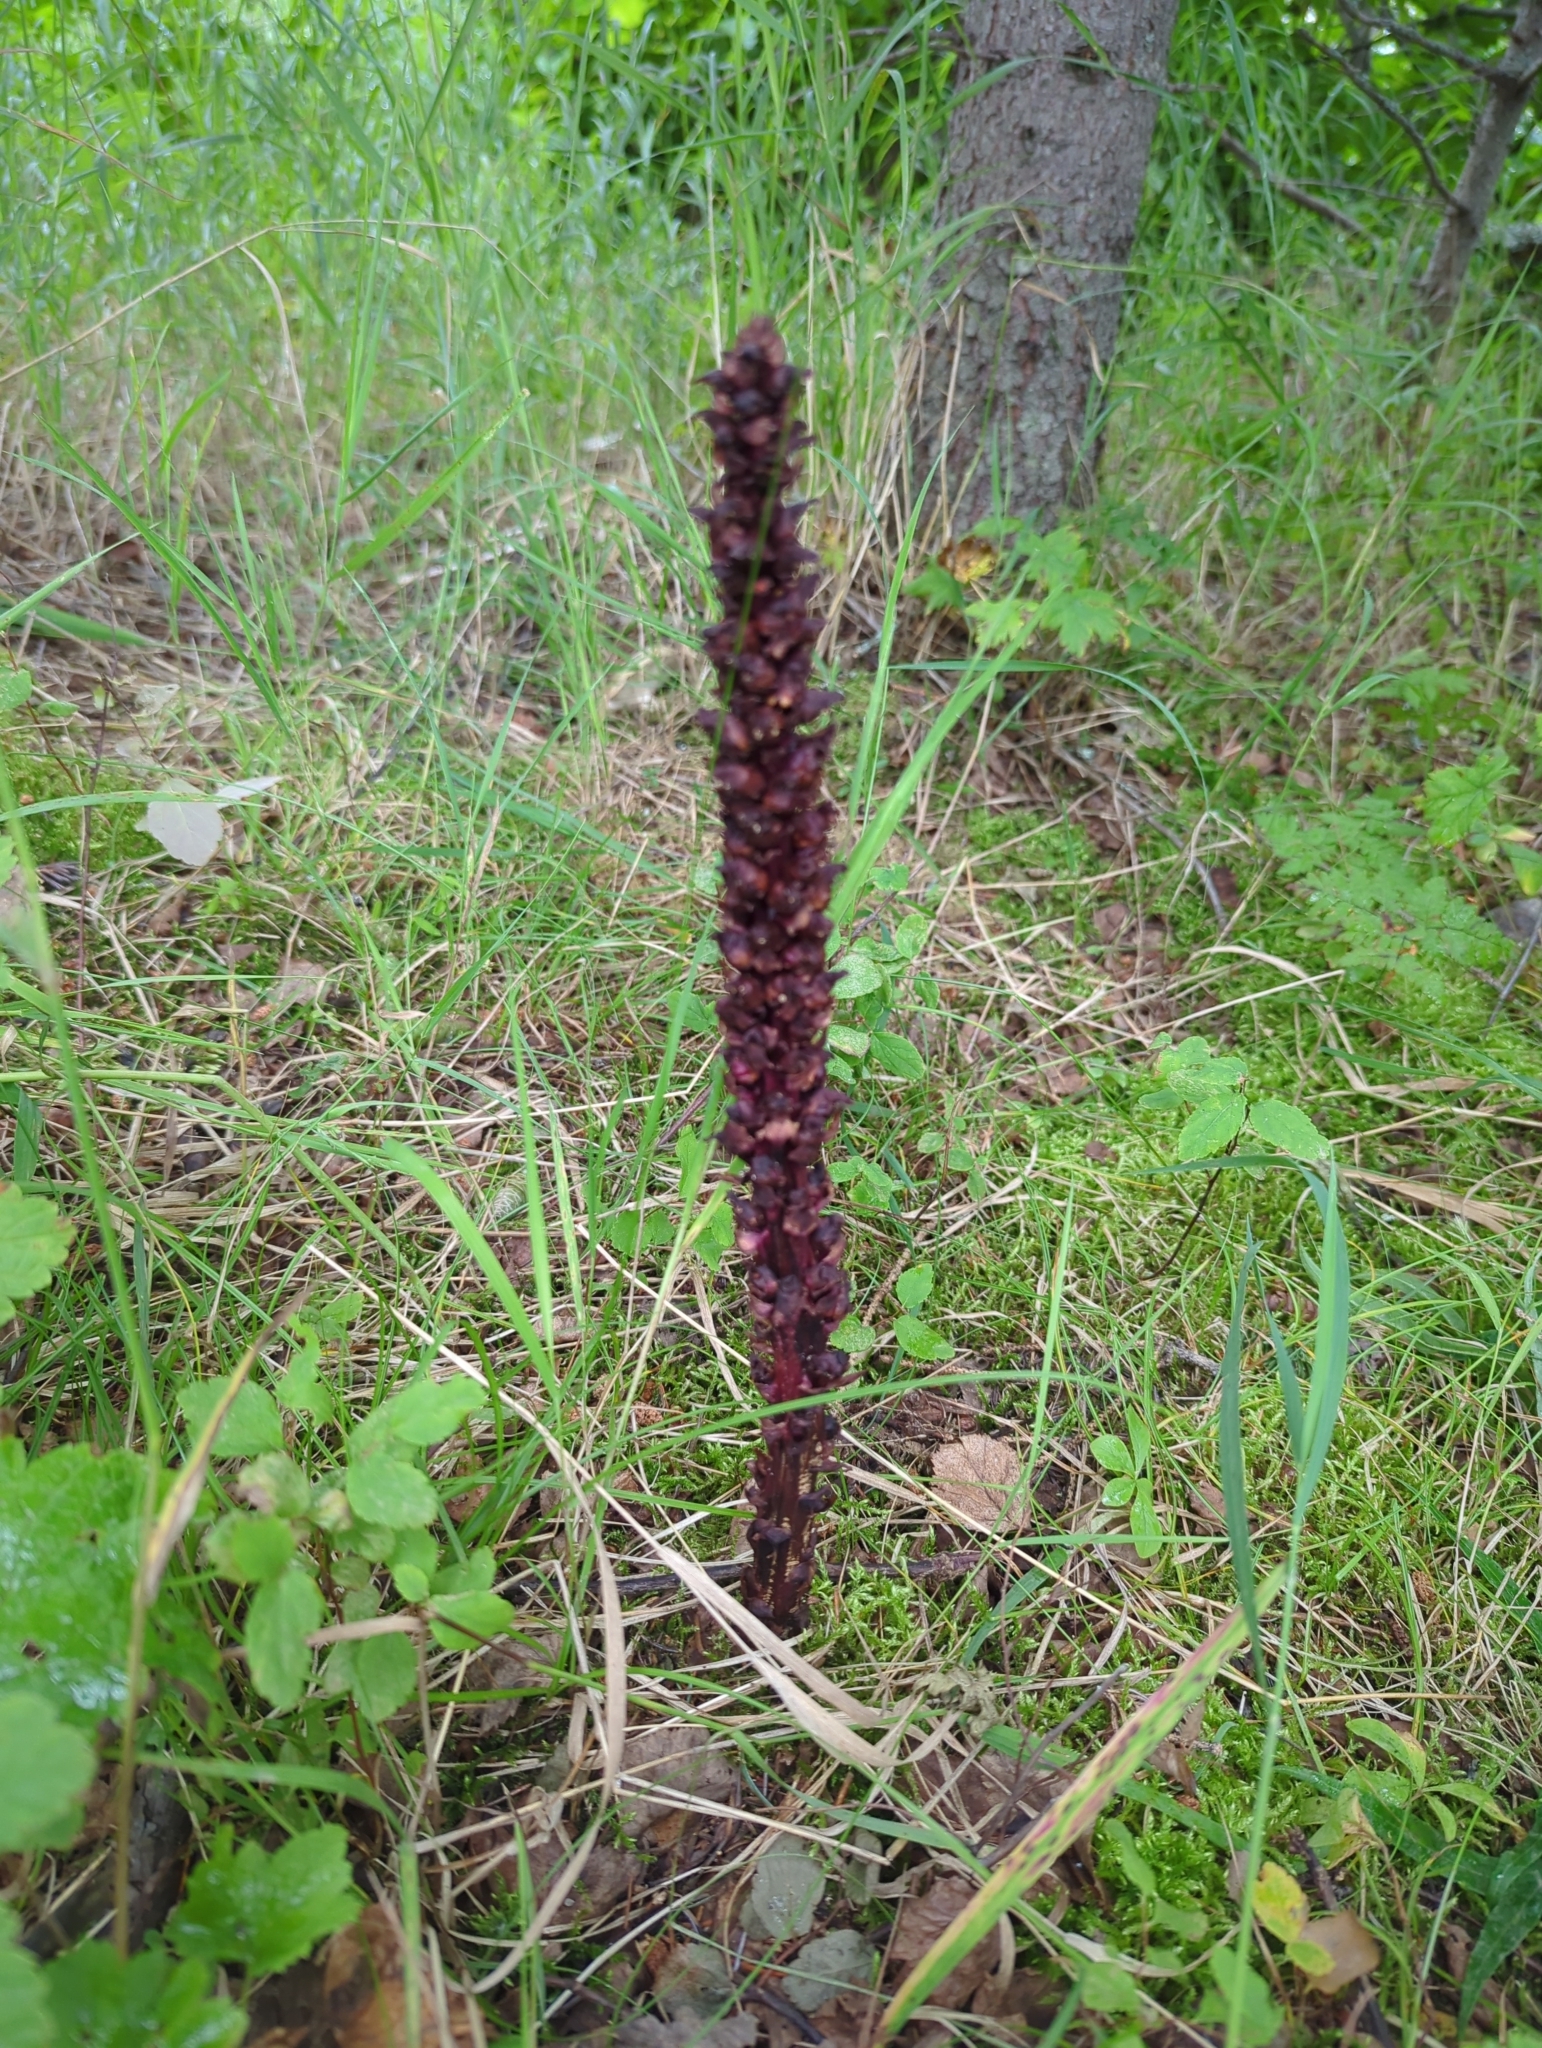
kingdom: Plantae
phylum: Tracheophyta
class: Magnoliopsida
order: Lamiales
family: Orobanchaceae
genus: Boschniakia
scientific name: Boschniakia rossica
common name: Poque
